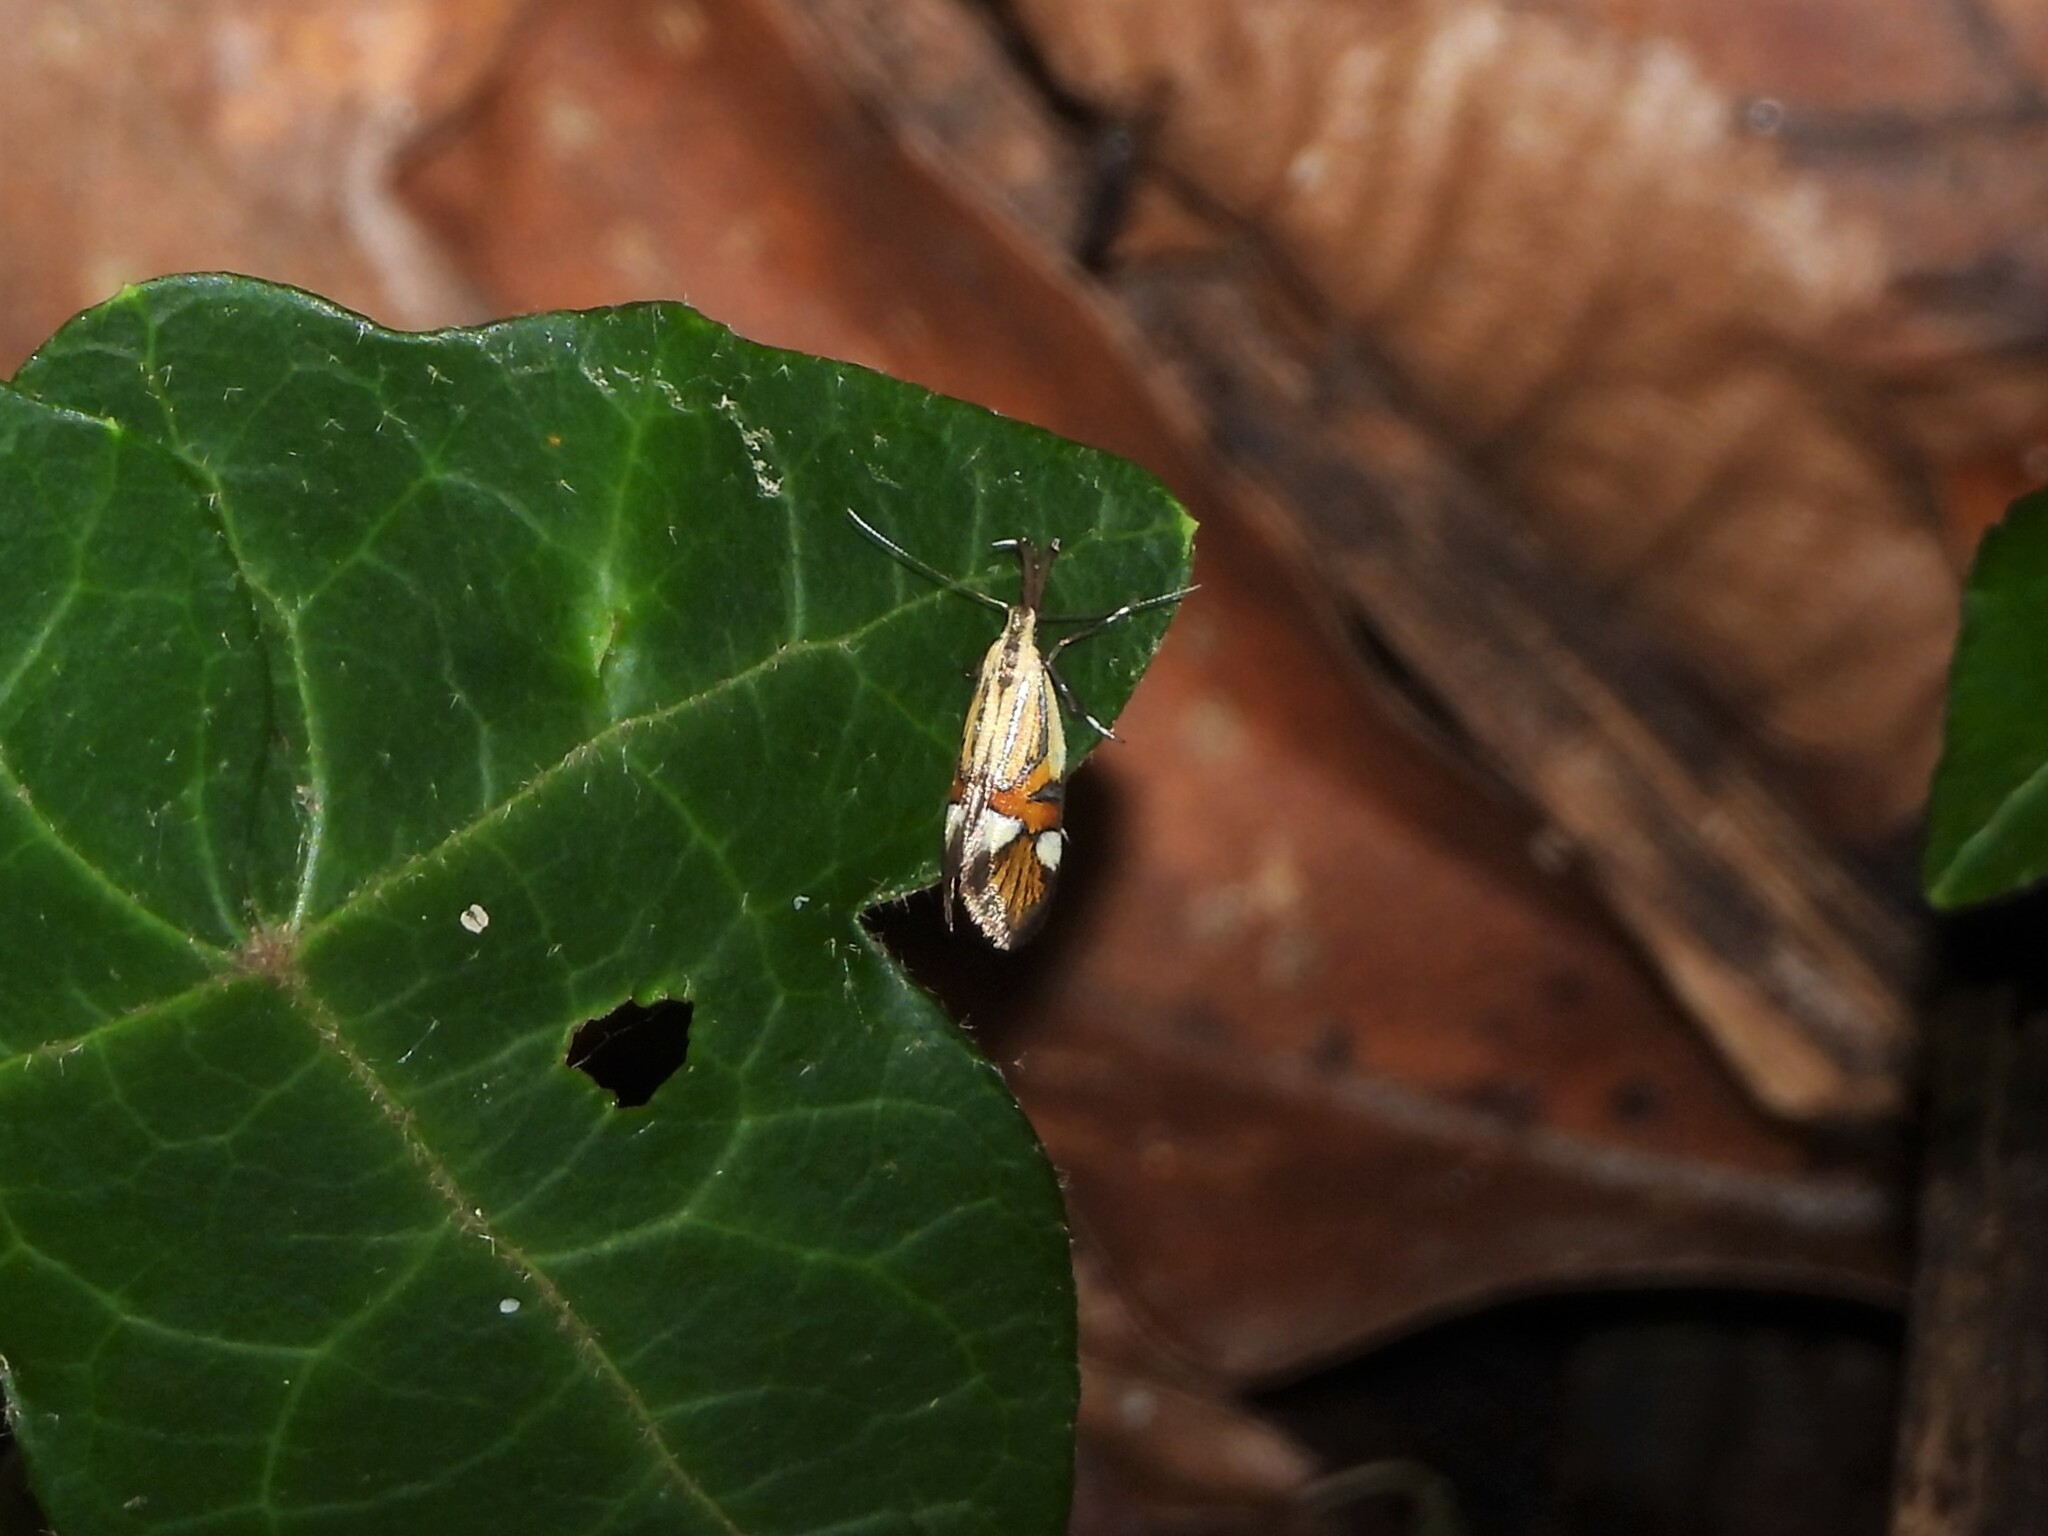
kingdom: Animalia
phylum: Arthropoda
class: Insecta
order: Lepidoptera
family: Oecophoridae
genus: Oecophora
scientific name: Oecophora Alabonia geoffrella
